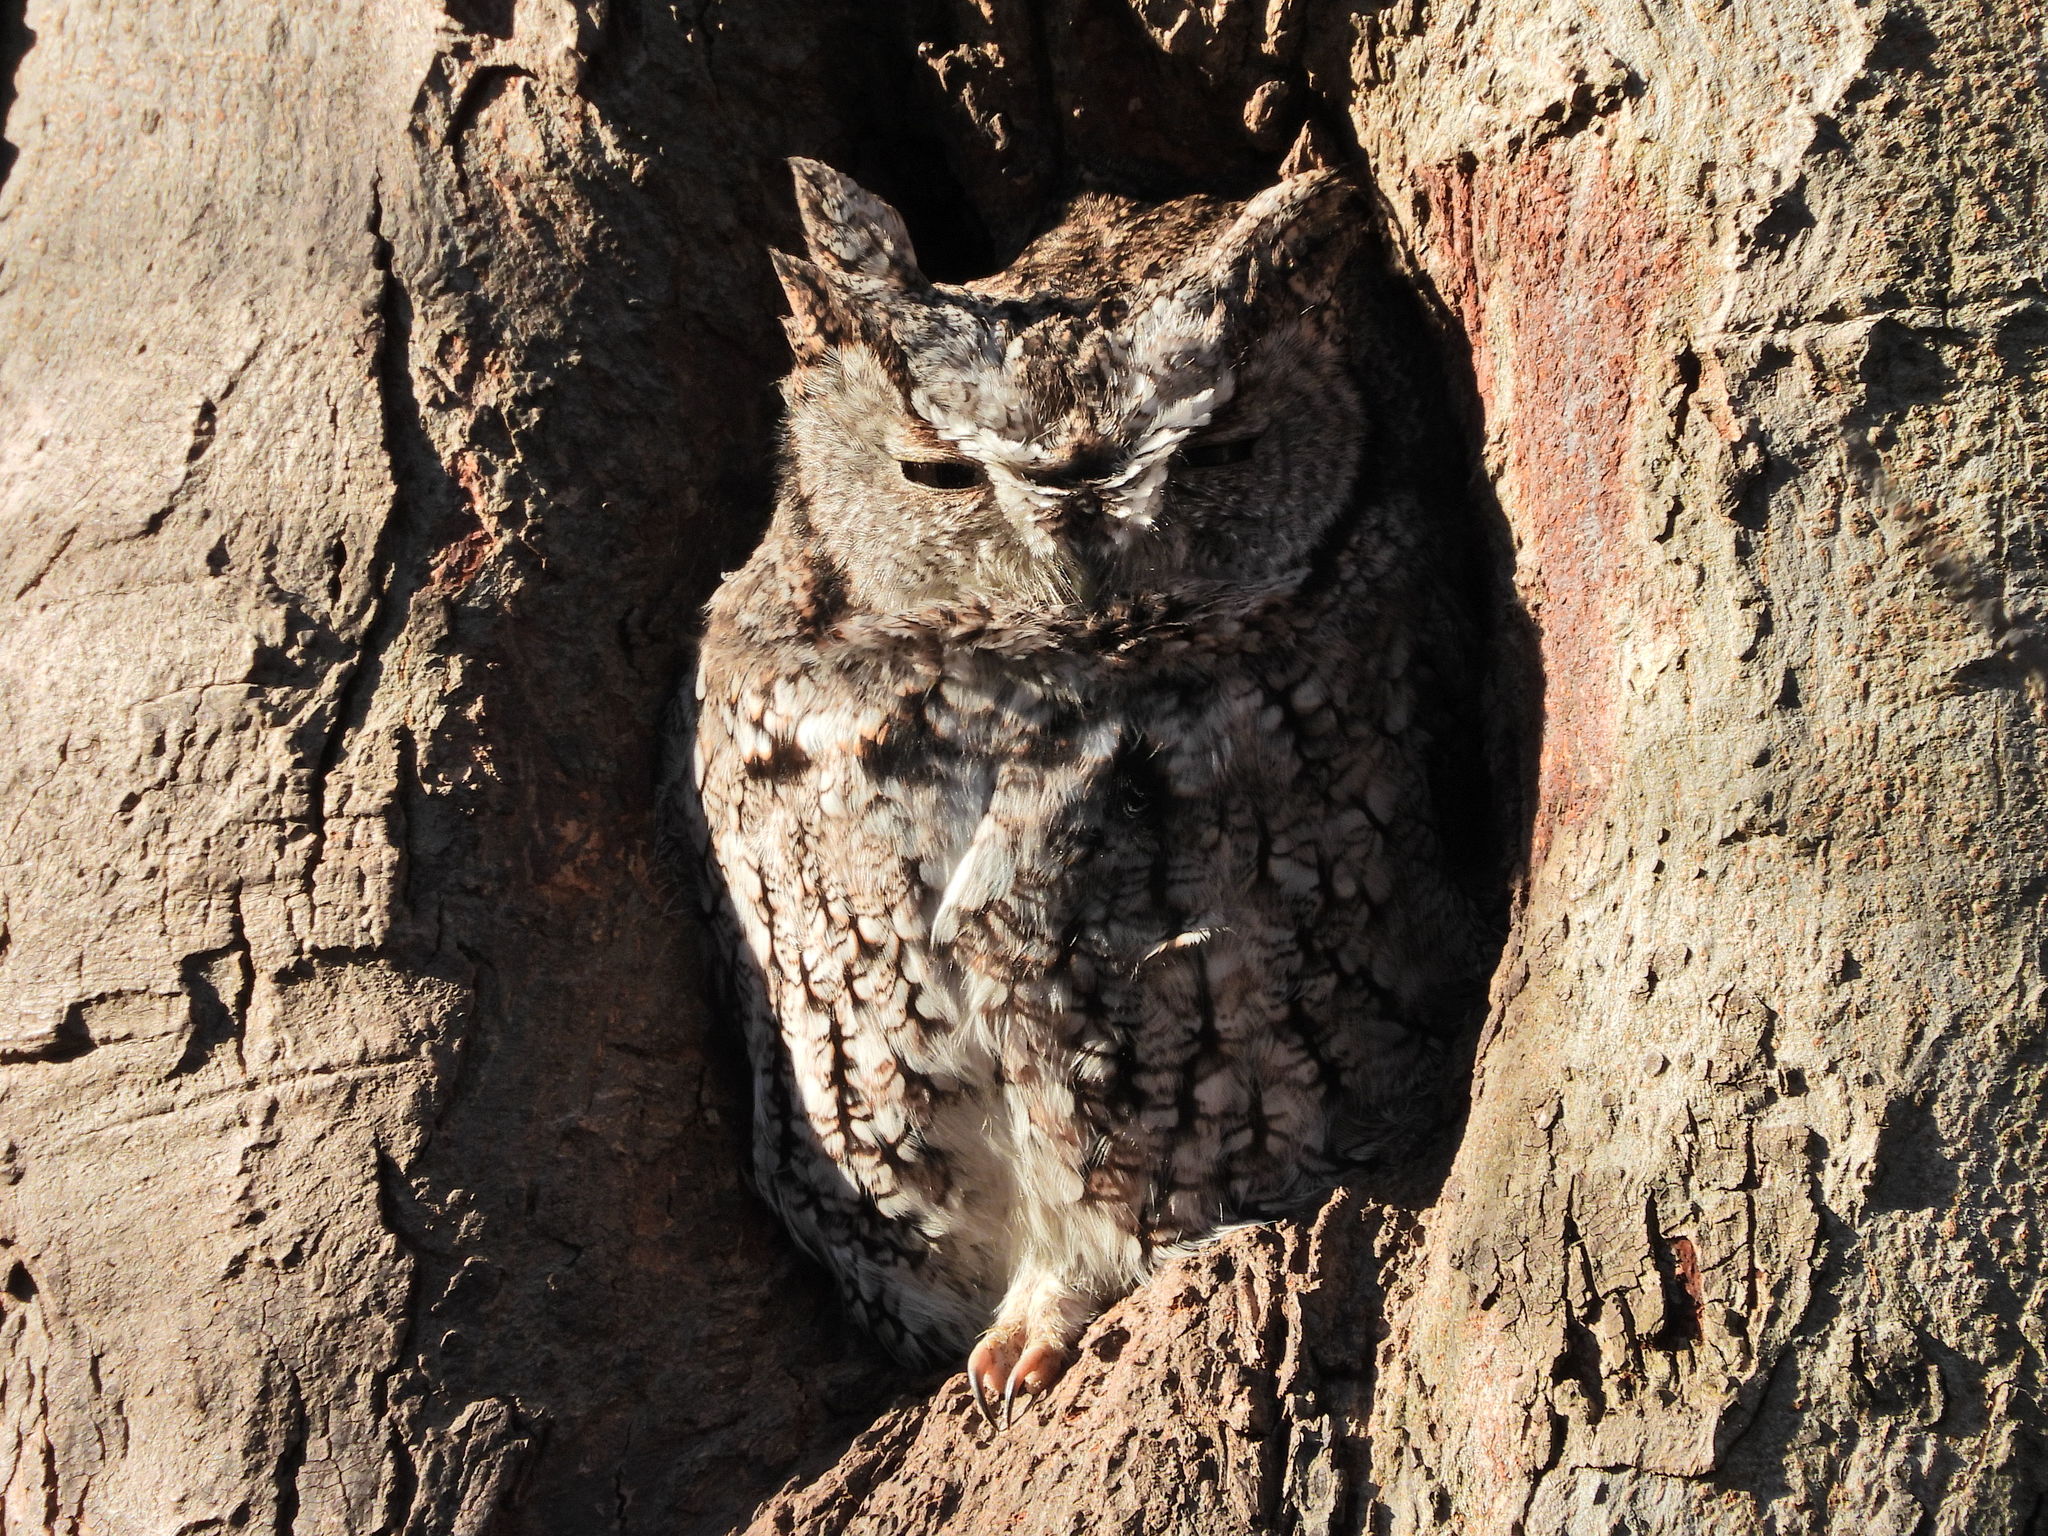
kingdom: Animalia
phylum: Chordata
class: Aves
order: Strigiformes
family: Strigidae
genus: Megascops
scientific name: Megascops asio
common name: Eastern screech-owl
